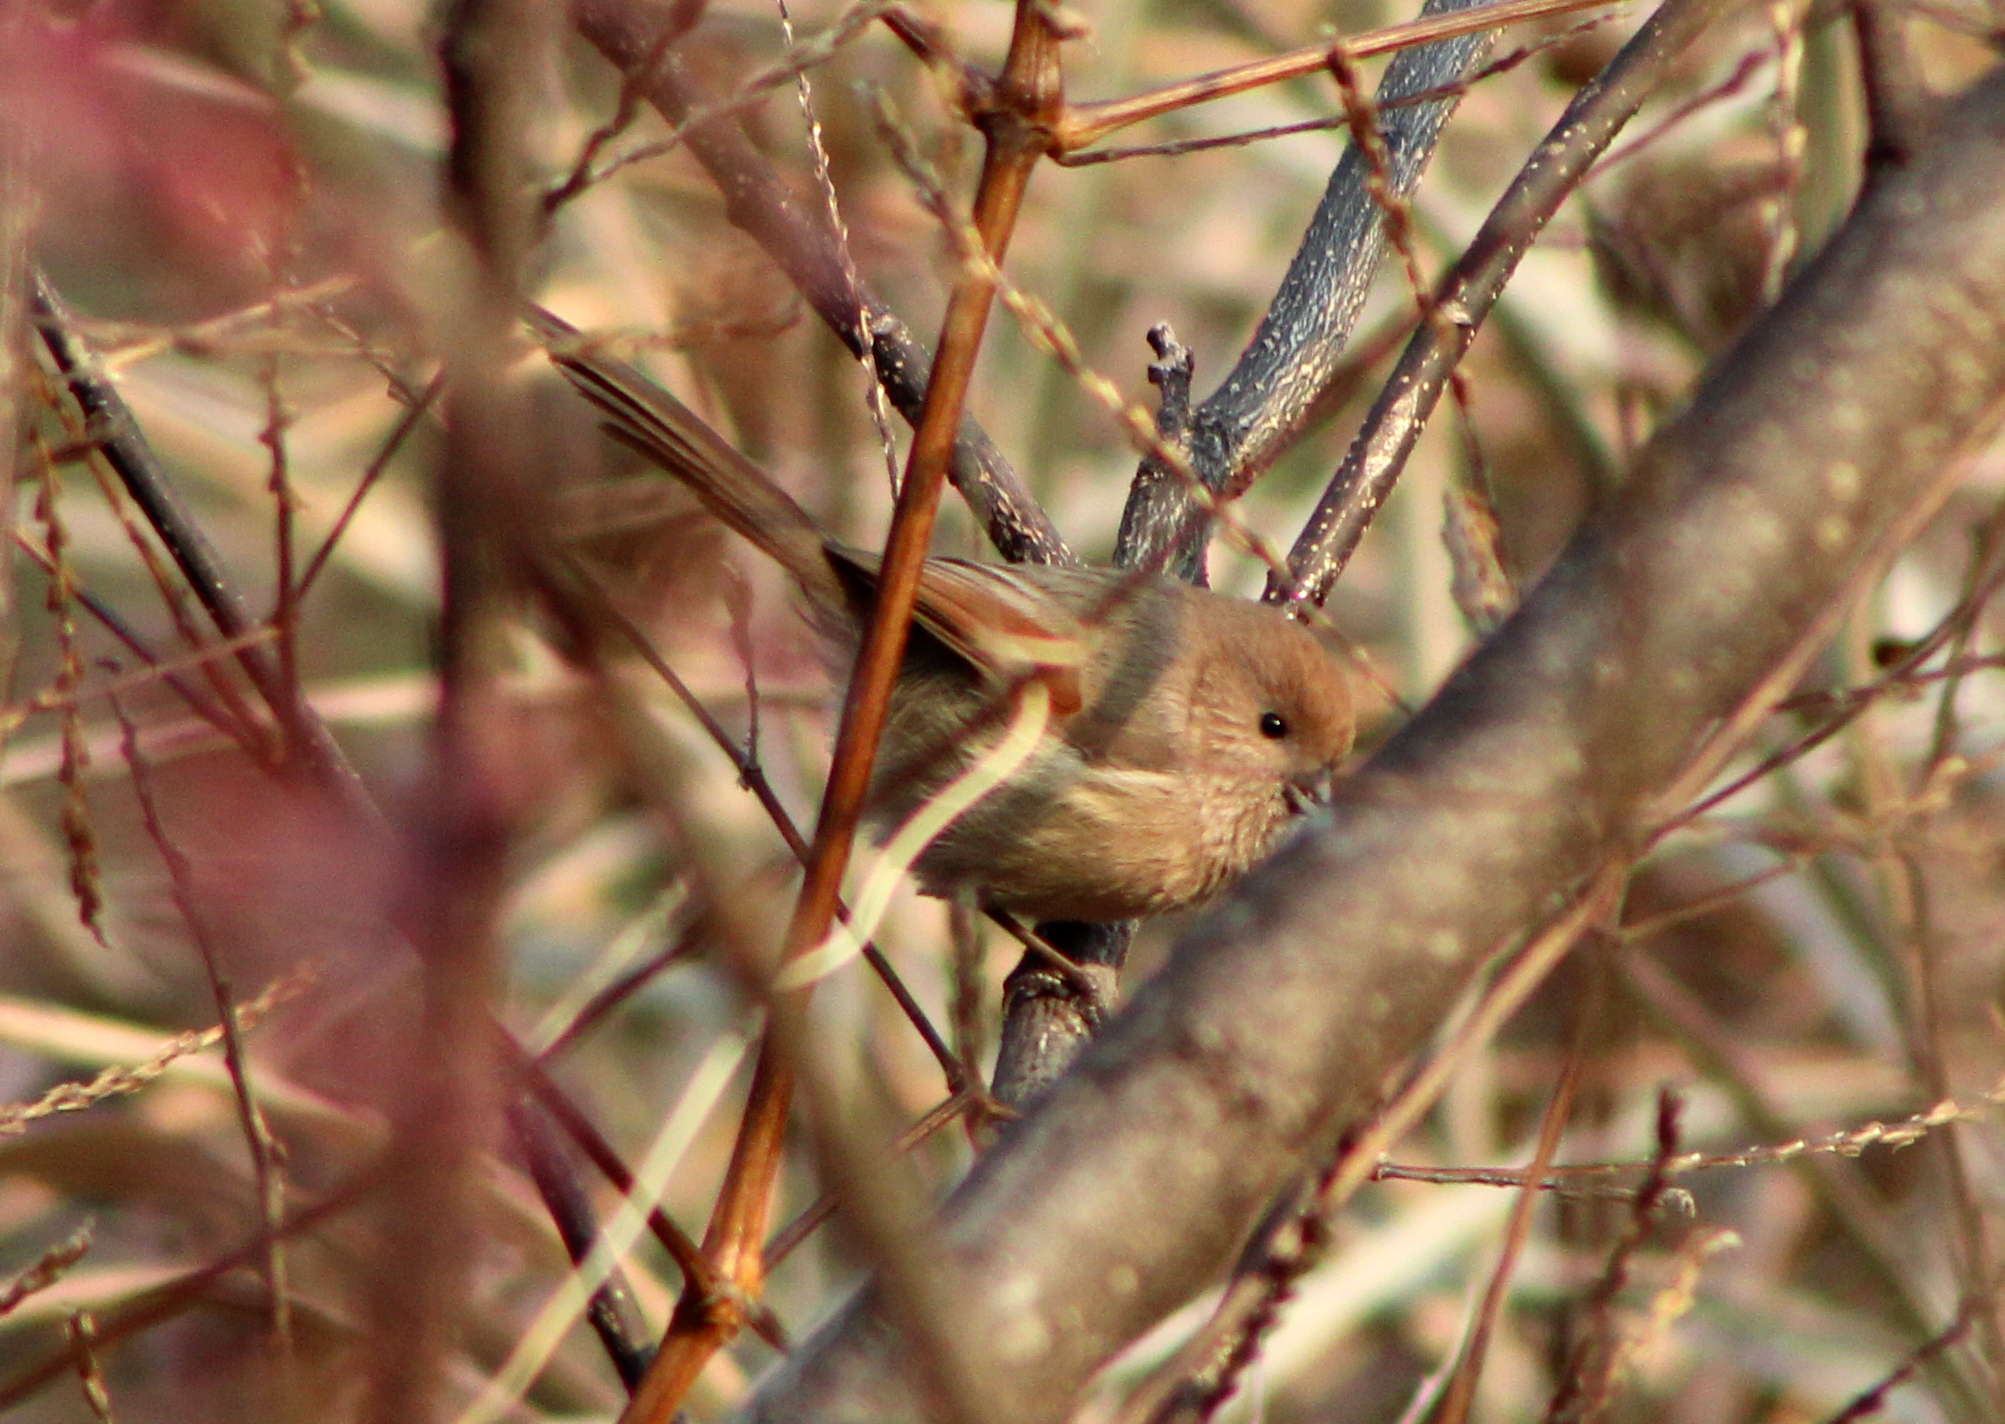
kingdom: Animalia
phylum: Chordata
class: Aves
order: Passeriformes
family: Sylviidae
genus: Sinosuthora
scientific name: Sinosuthora webbiana
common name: Vinous-throated parrotbill
